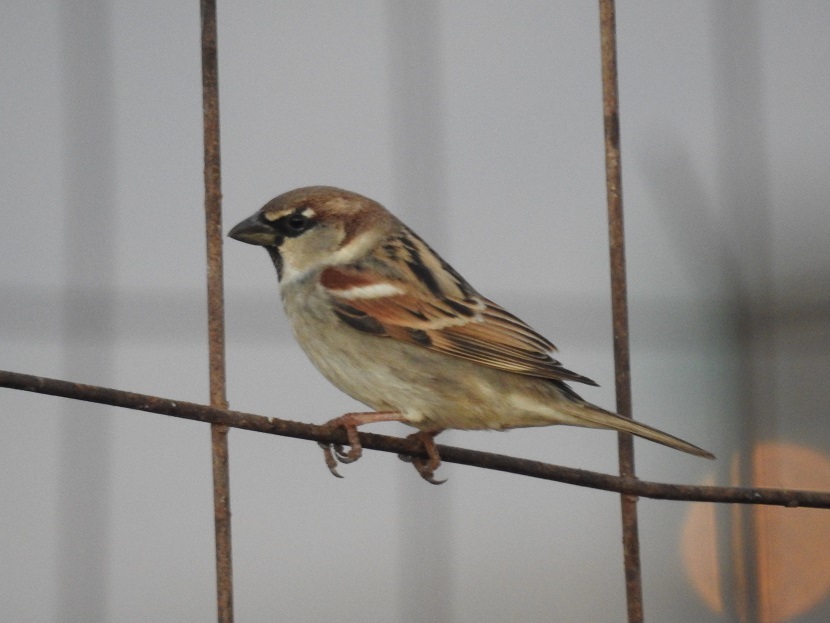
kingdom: Animalia
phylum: Chordata
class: Aves
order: Passeriformes
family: Passeridae
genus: Passer
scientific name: Passer domesticus
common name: House sparrow
